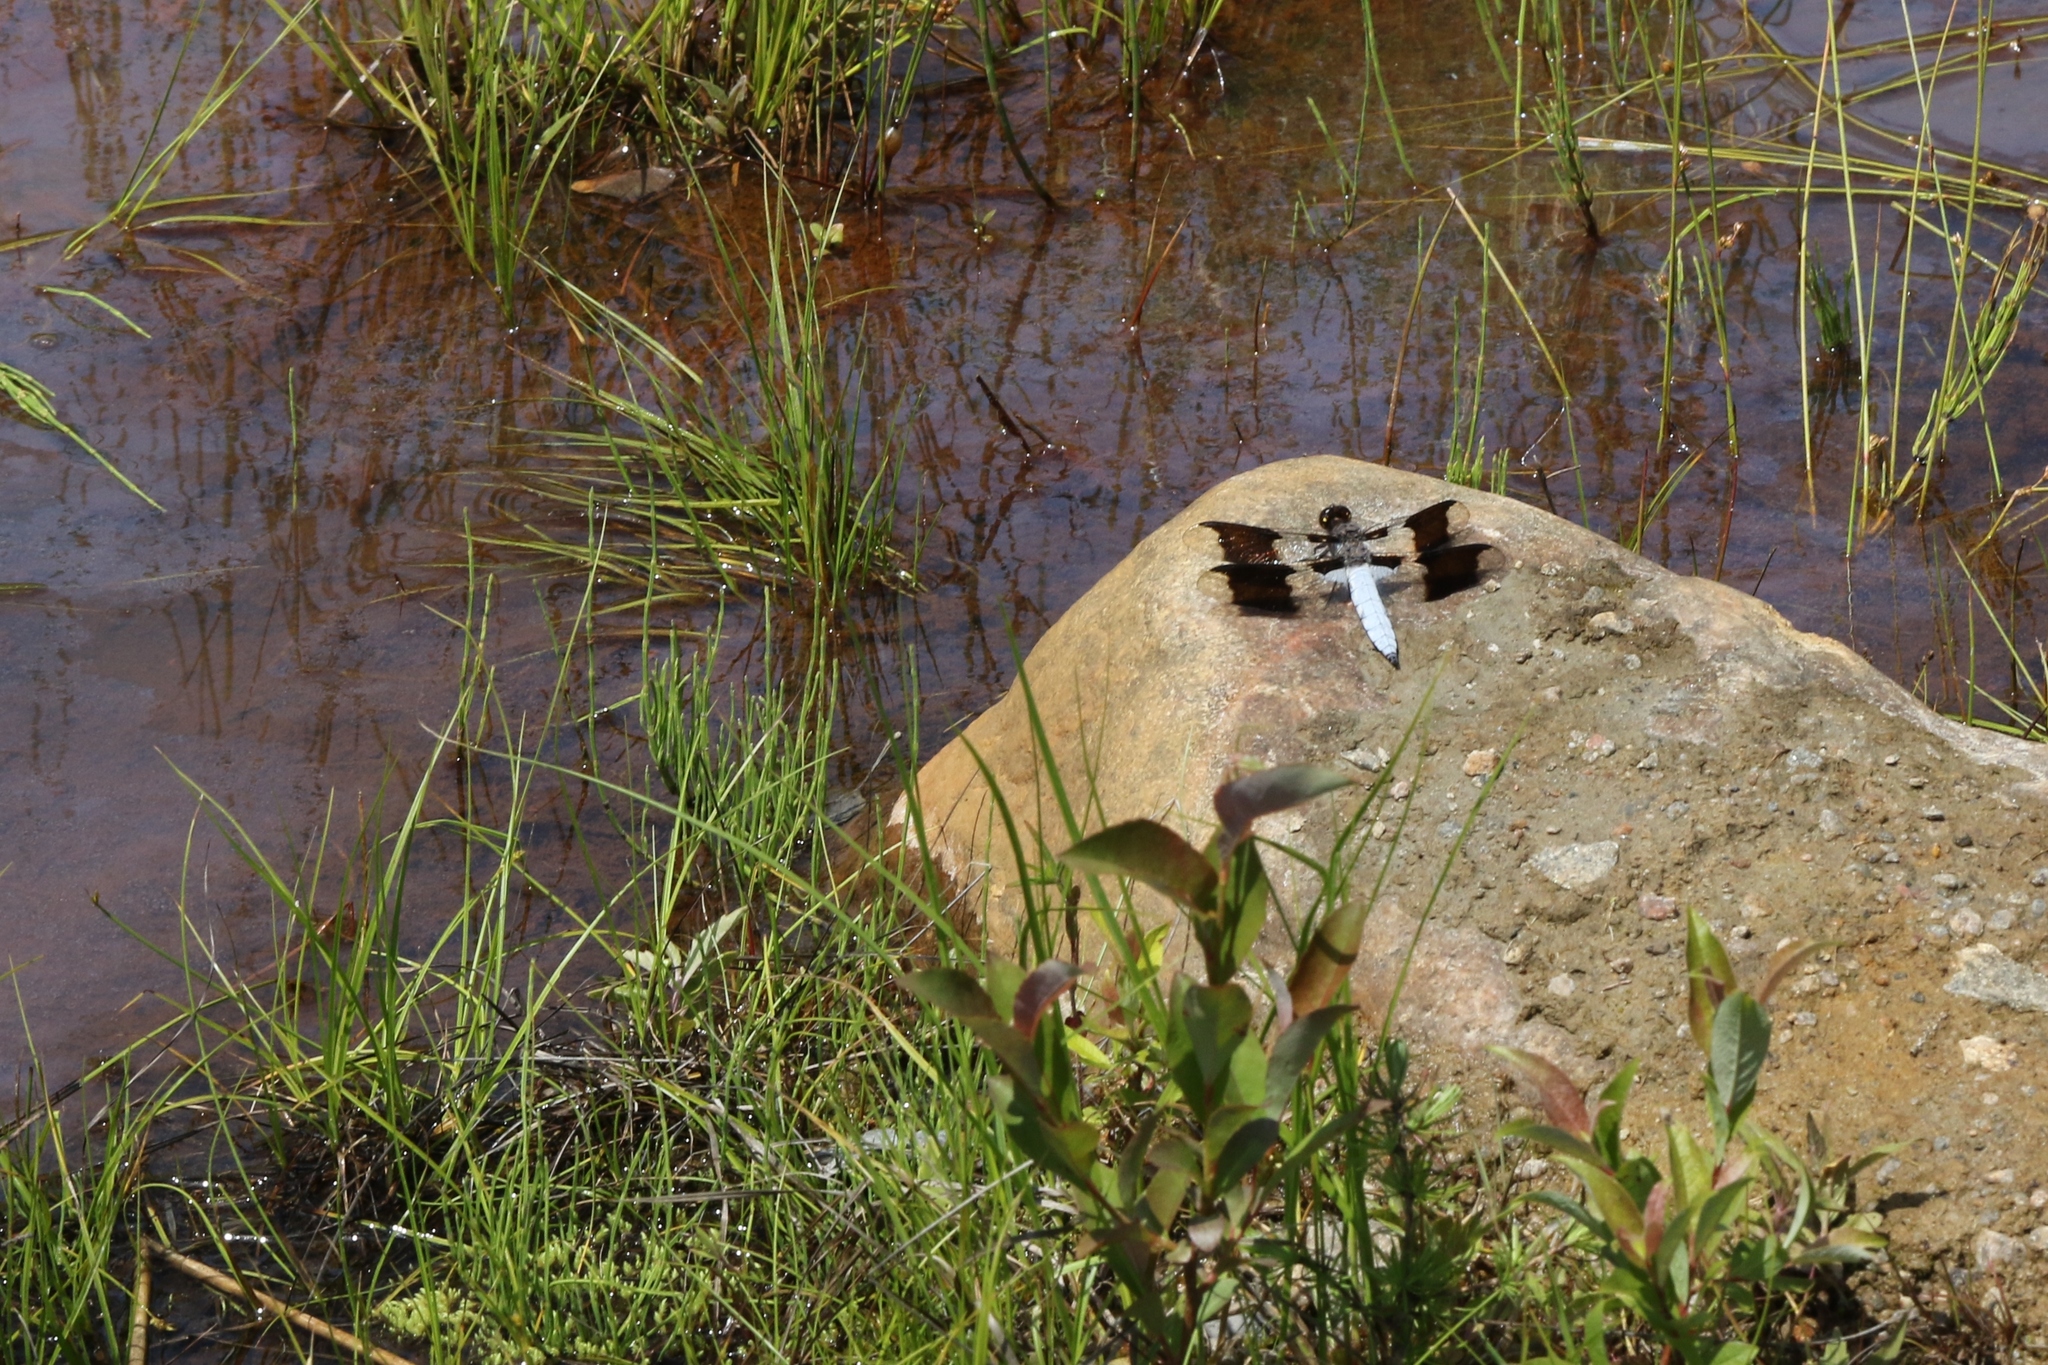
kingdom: Animalia
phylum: Arthropoda
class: Insecta
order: Odonata
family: Libellulidae
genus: Plathemis
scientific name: Plathemis lydia
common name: Common whitetail
